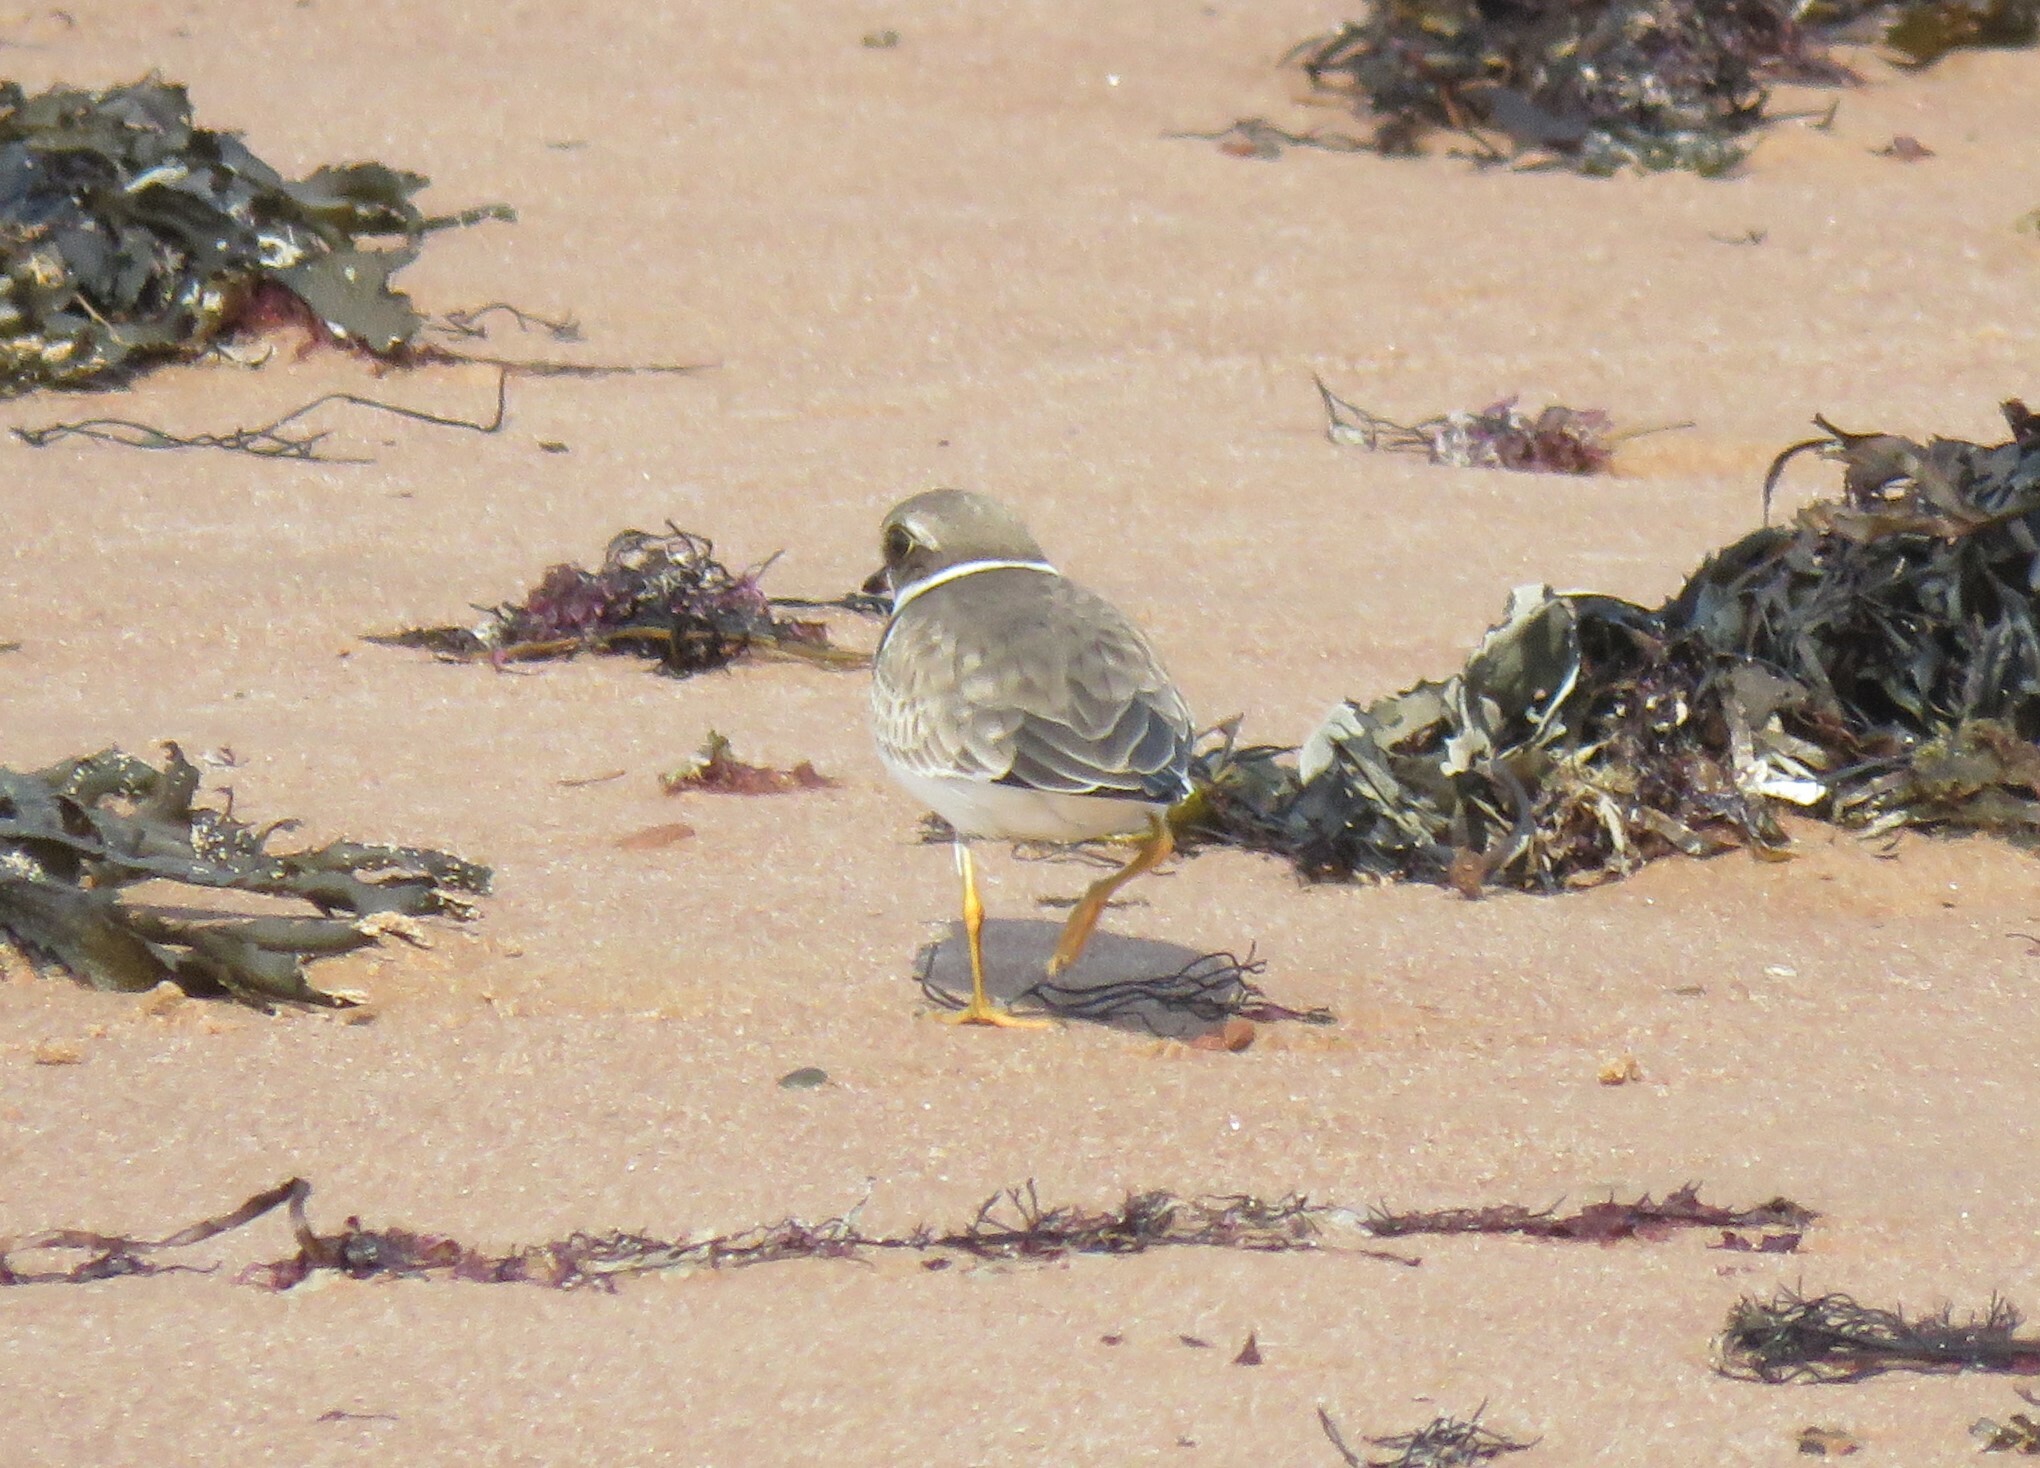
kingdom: Animalia
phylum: Chordata
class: Aves
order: Charadriiformes
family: Charadriidae
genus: Charadrius
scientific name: Charadrius semipalmatus
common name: Semipalmated plover
